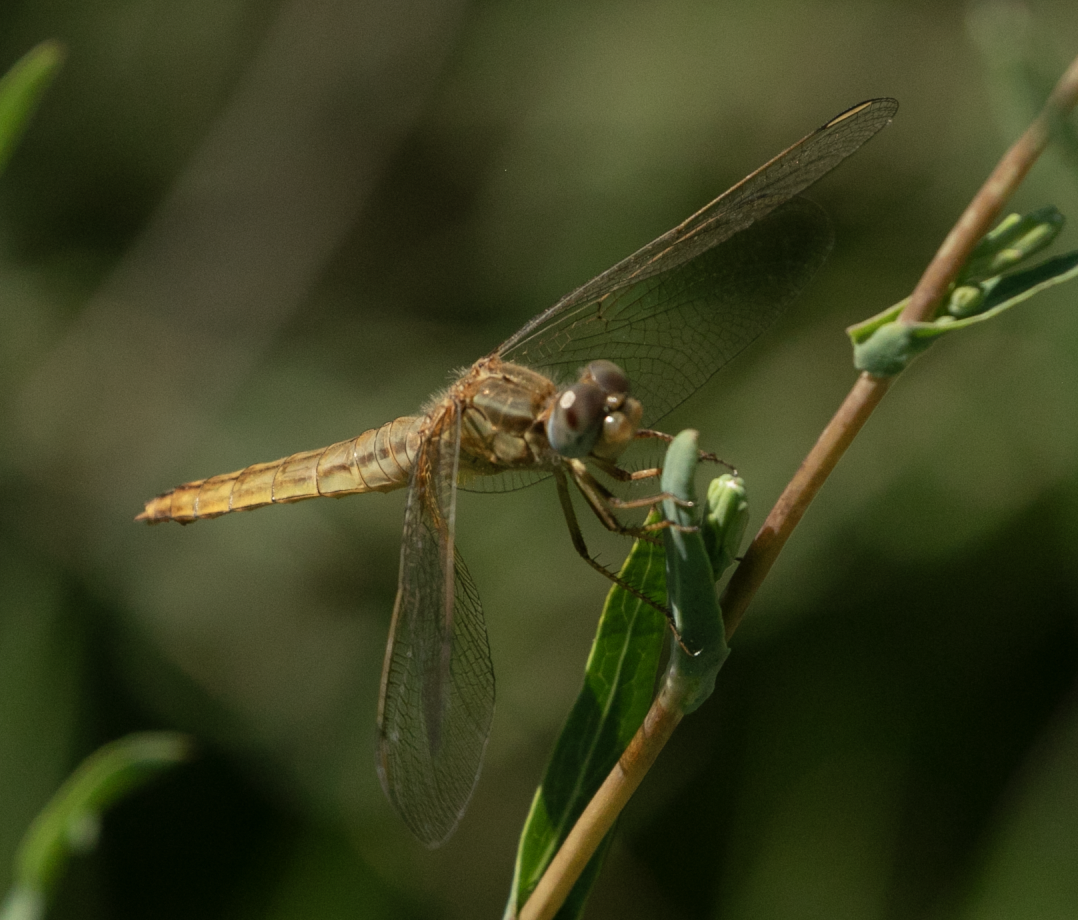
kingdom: Animalia
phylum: Arthropoda
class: Insecta
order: Odonata
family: Libellulidae
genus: Crocothemis
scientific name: Crocothemis erythraea
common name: Scarlet dragonfly
